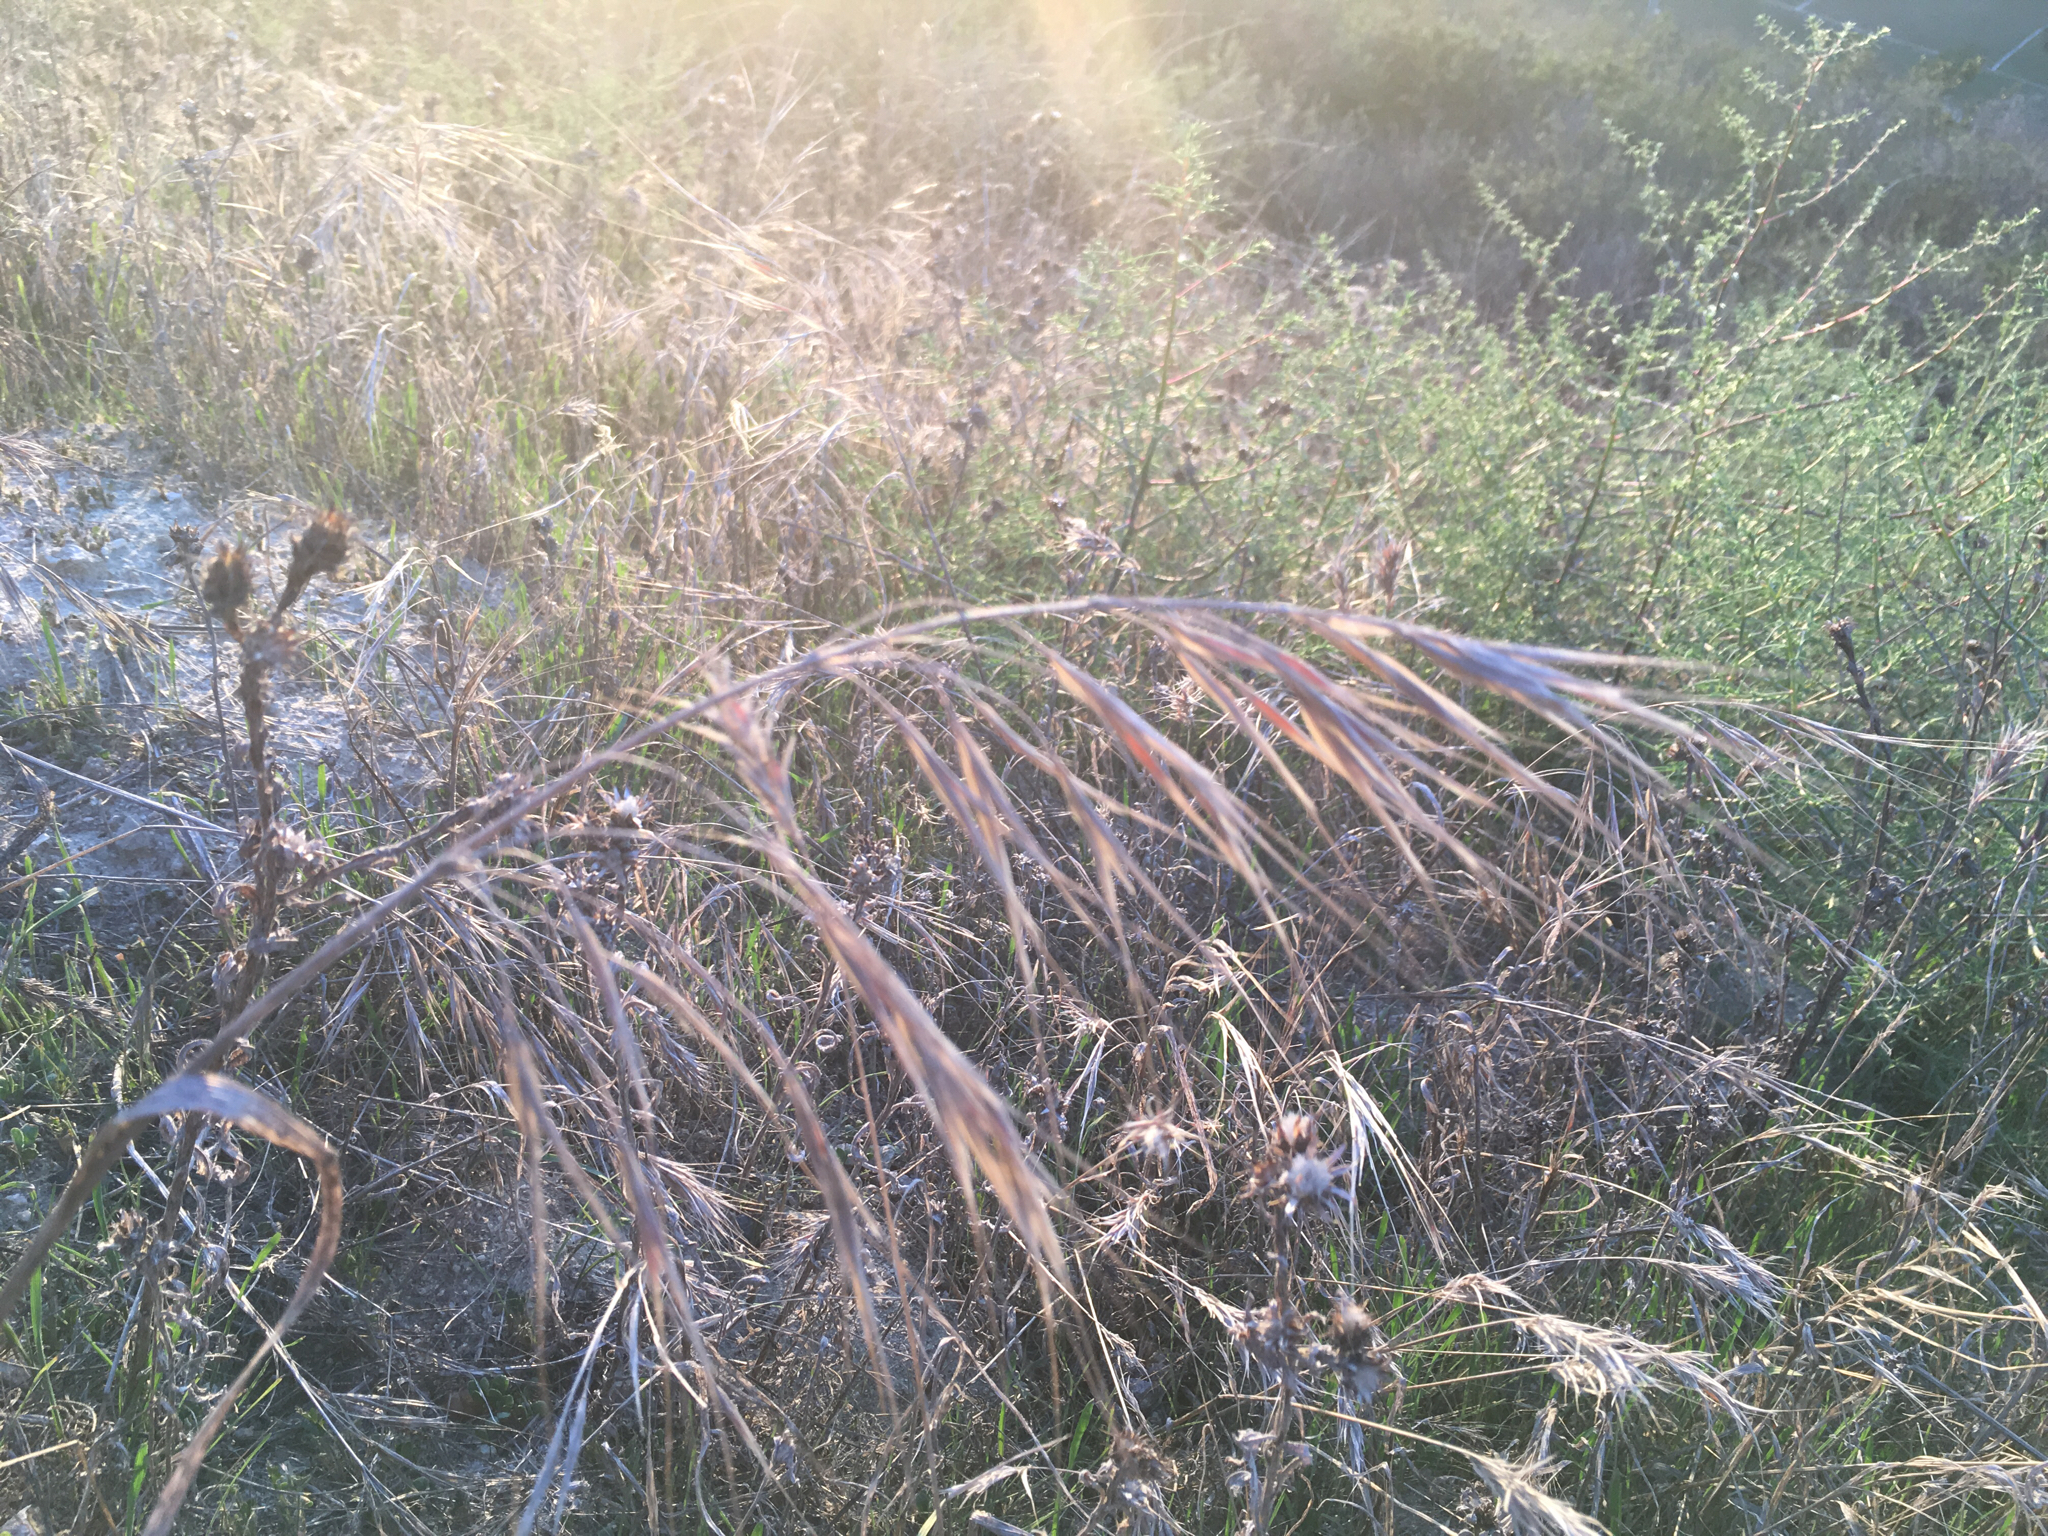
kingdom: Plantae
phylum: Tracheophyta
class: Liliopsida
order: Poales
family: Poaceae
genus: Bromus
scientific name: Bromus diandrus
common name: Ripgut brome
